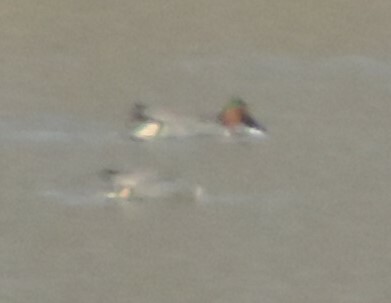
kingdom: Animalia
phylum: Chordata
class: Aves
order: Anseriformes
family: Anatidae
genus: Anas
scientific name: Anas crecca
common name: Eurasian teal
